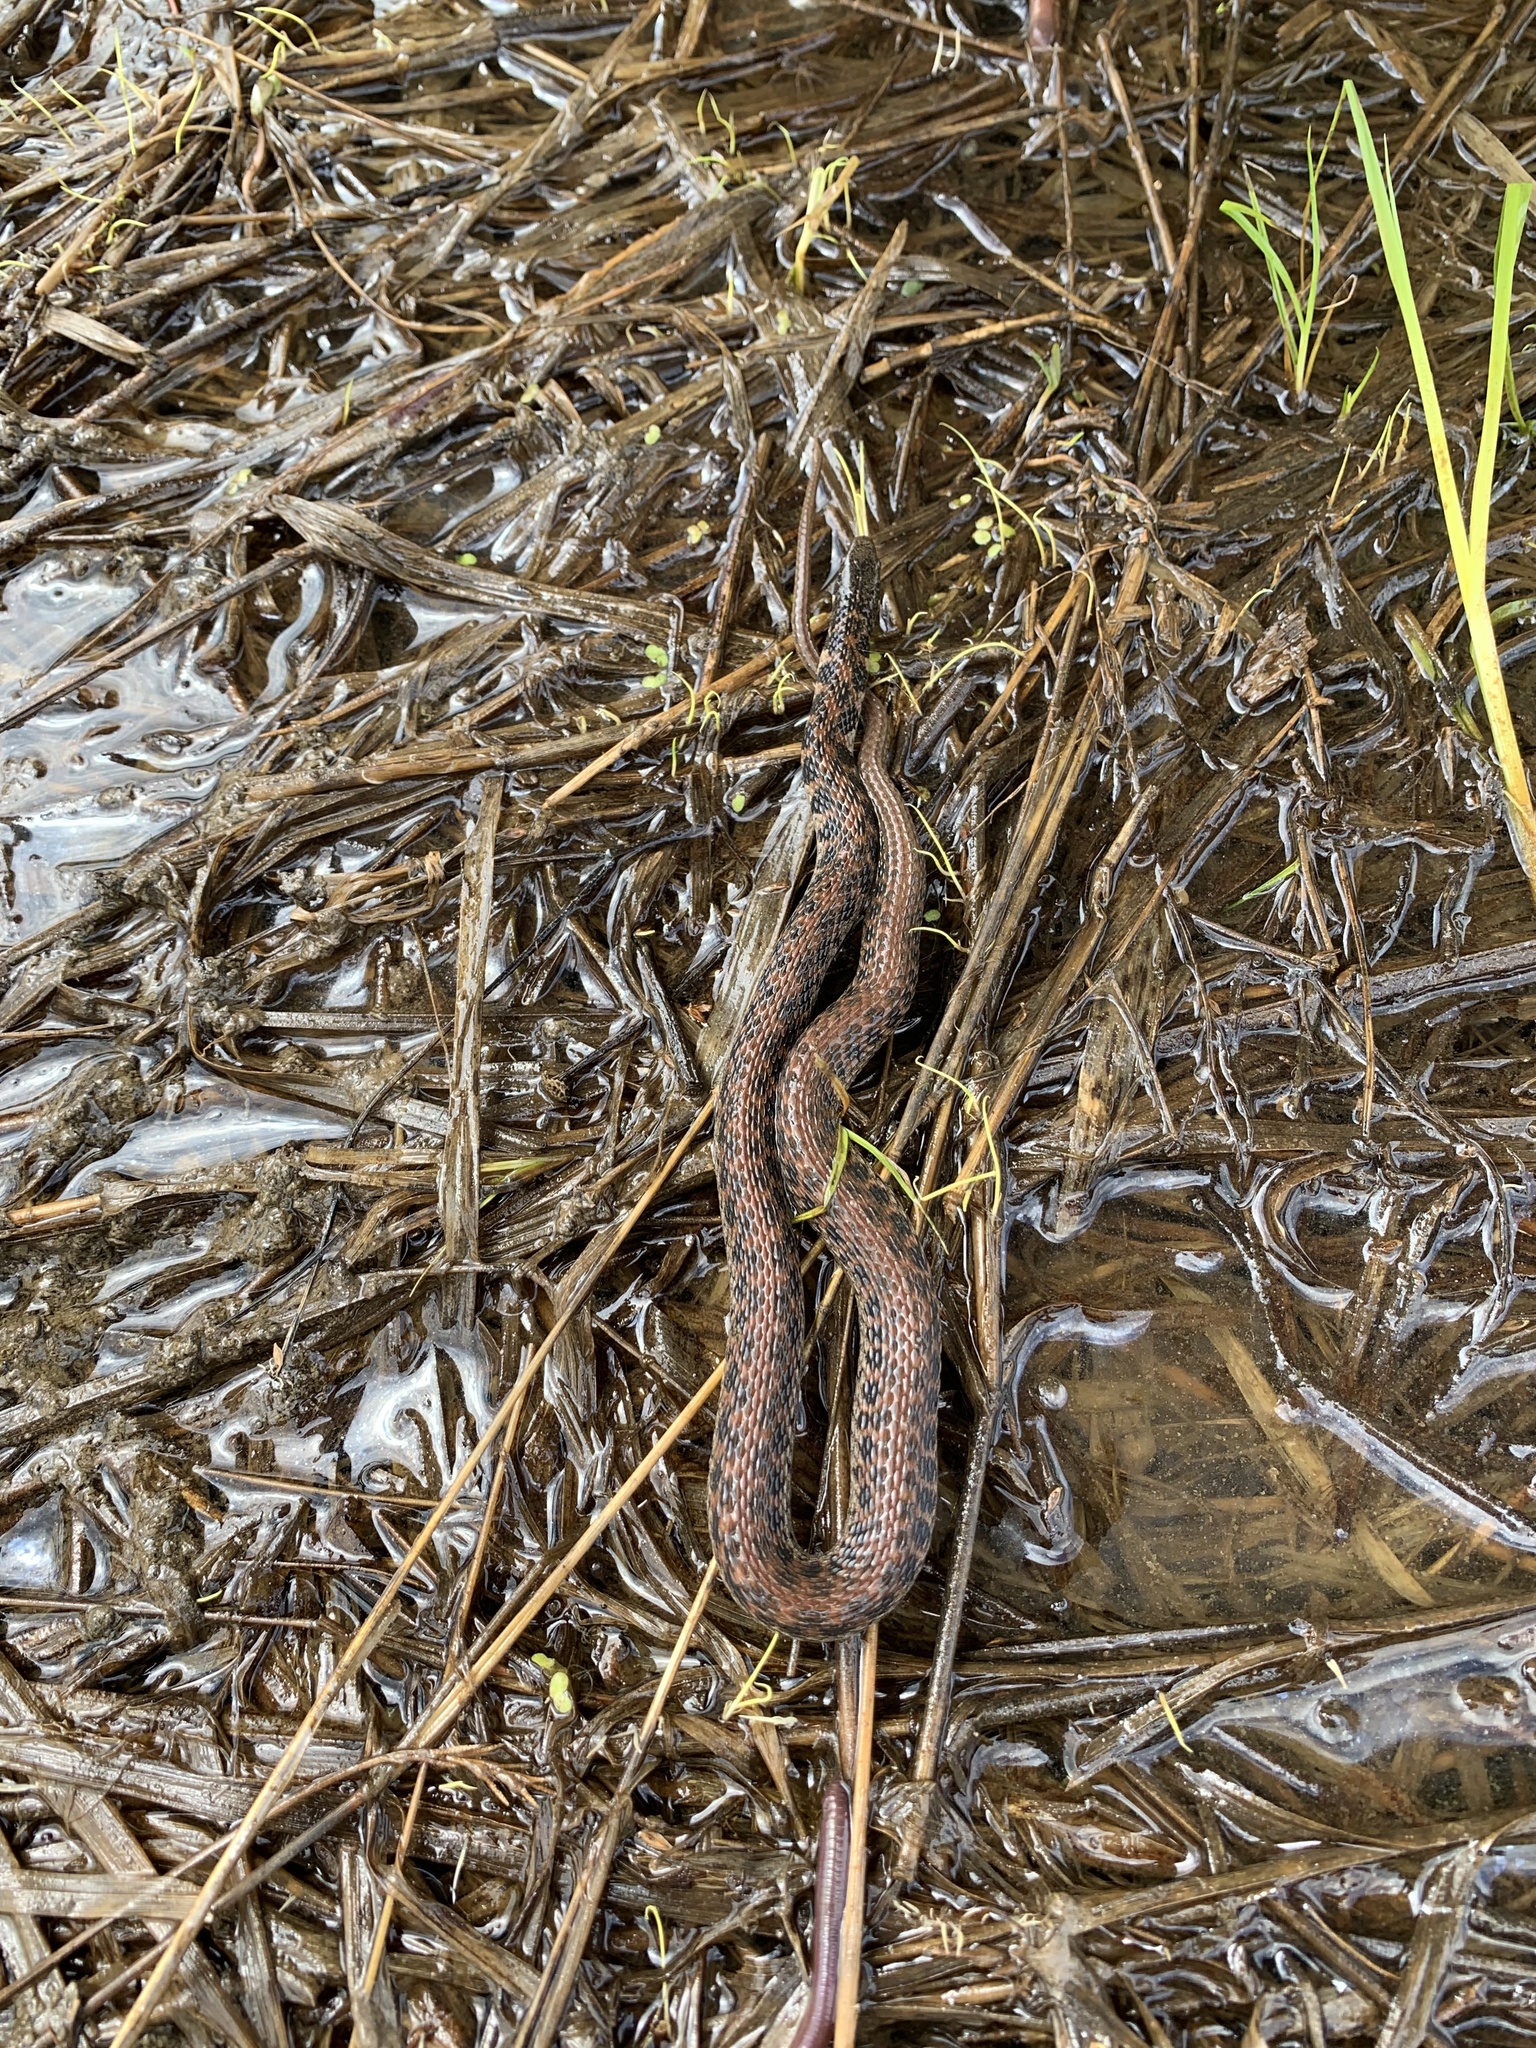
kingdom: Animalia
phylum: Chordata
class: Squamata
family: Colubridae
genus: Clonophis
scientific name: Clonophis kirtlandii
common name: Kirtland's snake
